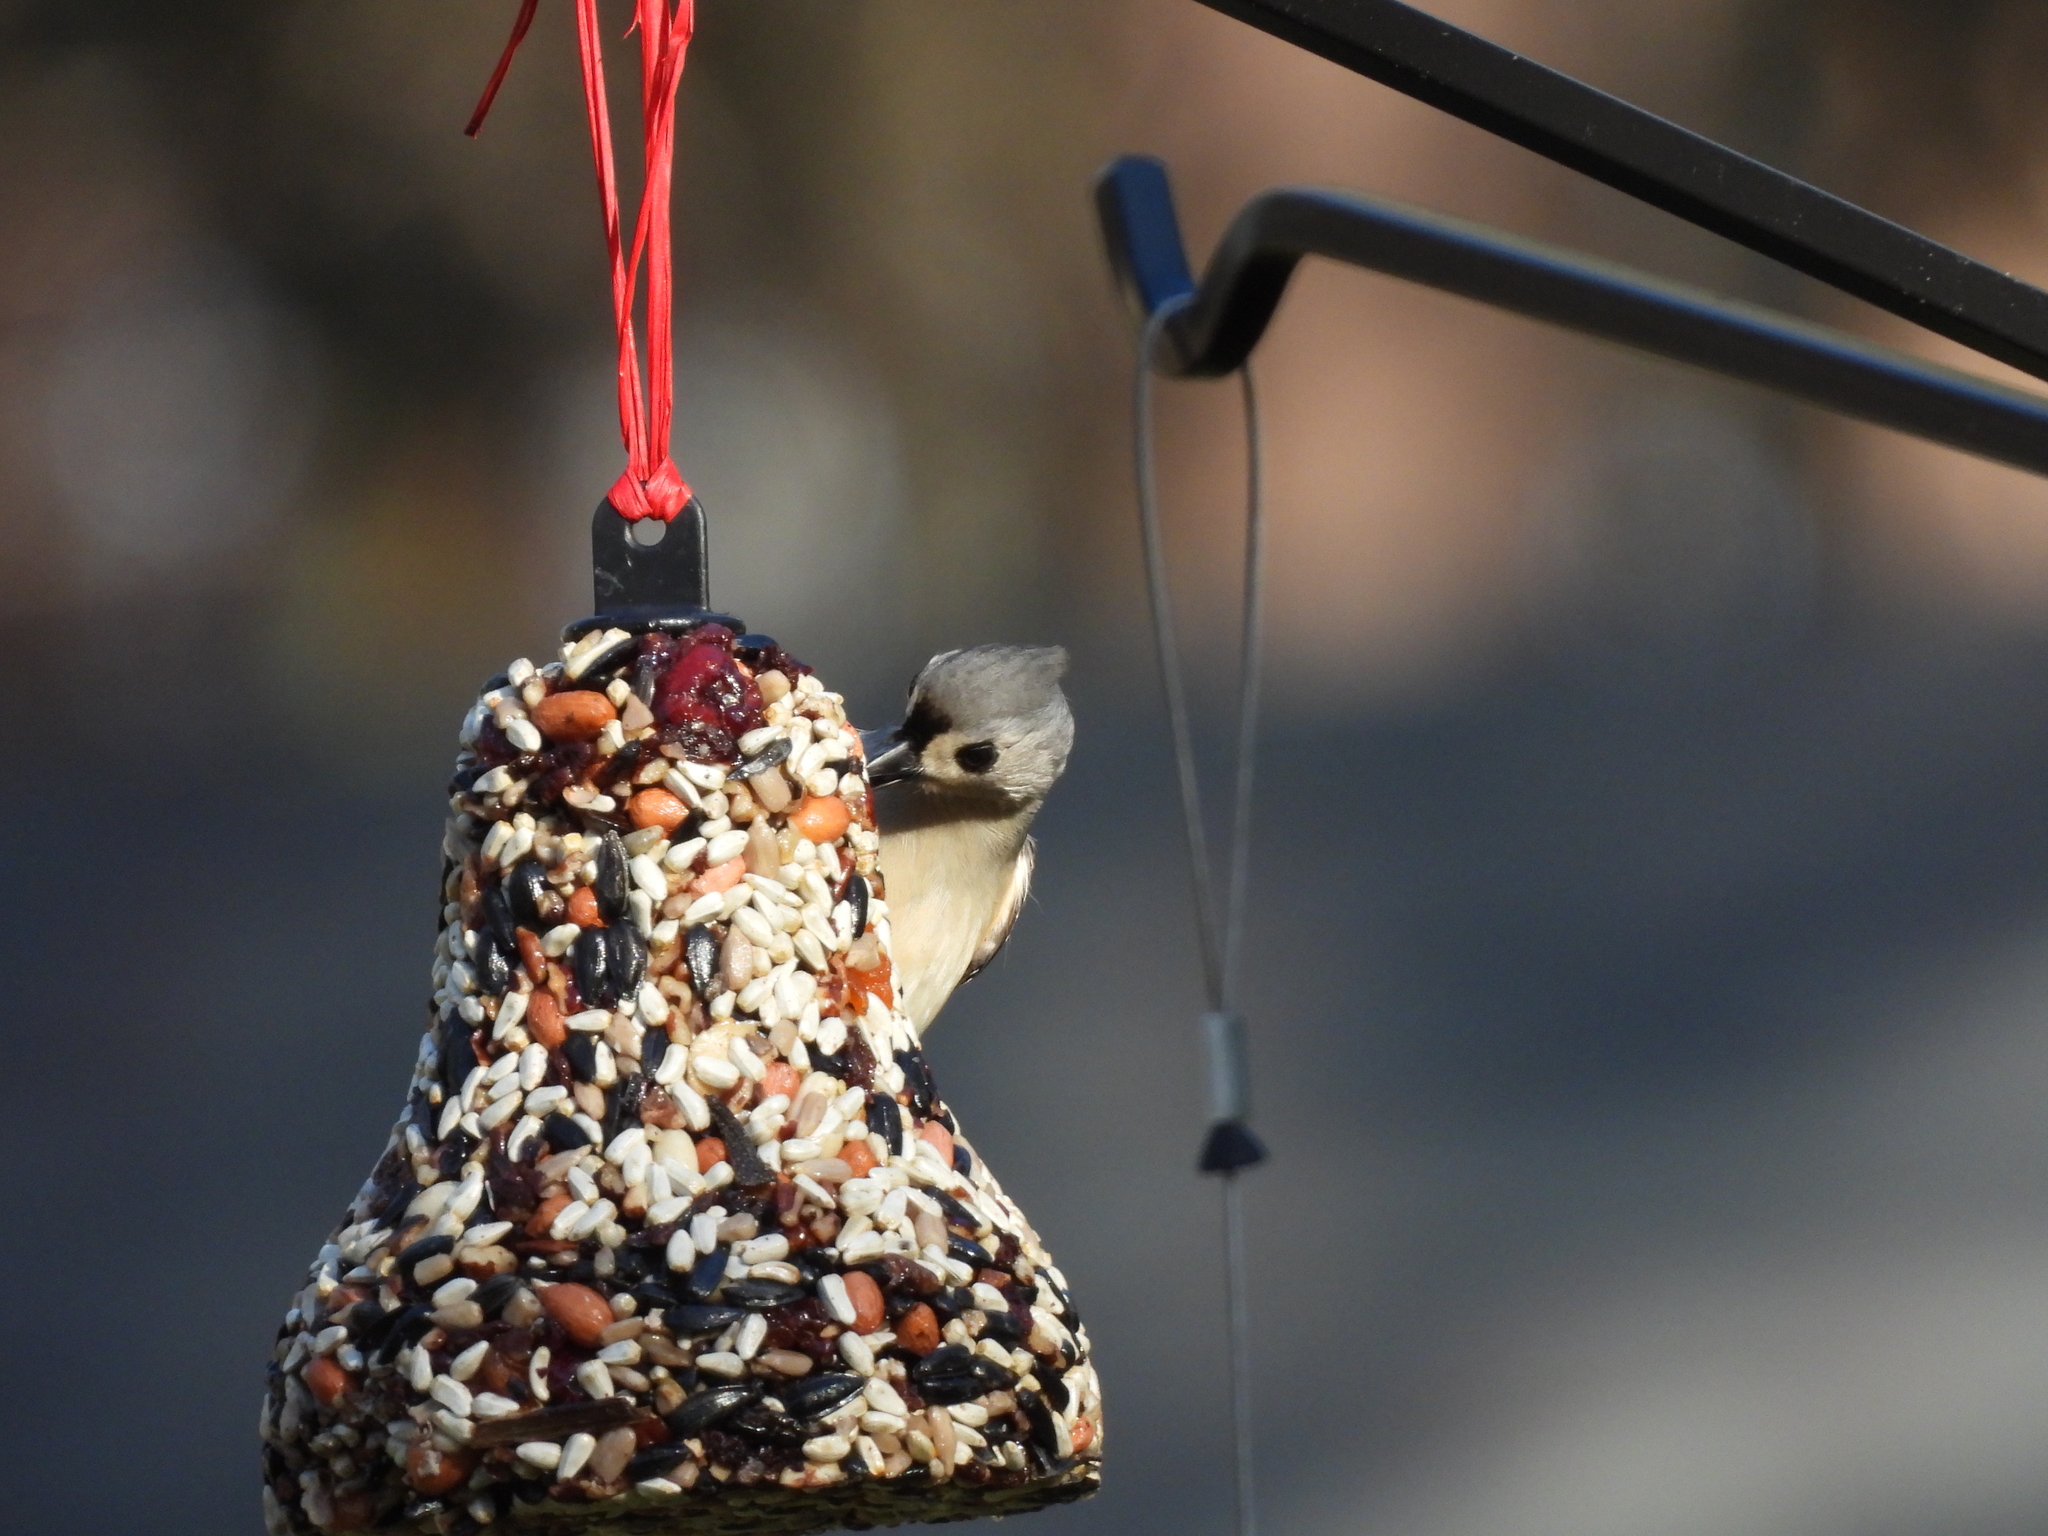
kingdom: Animalia
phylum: Chordata
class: Aves
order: Passeriformes
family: Paridae
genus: Baeolophus
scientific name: Baeolophus bicolor
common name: Tufted titmouse
